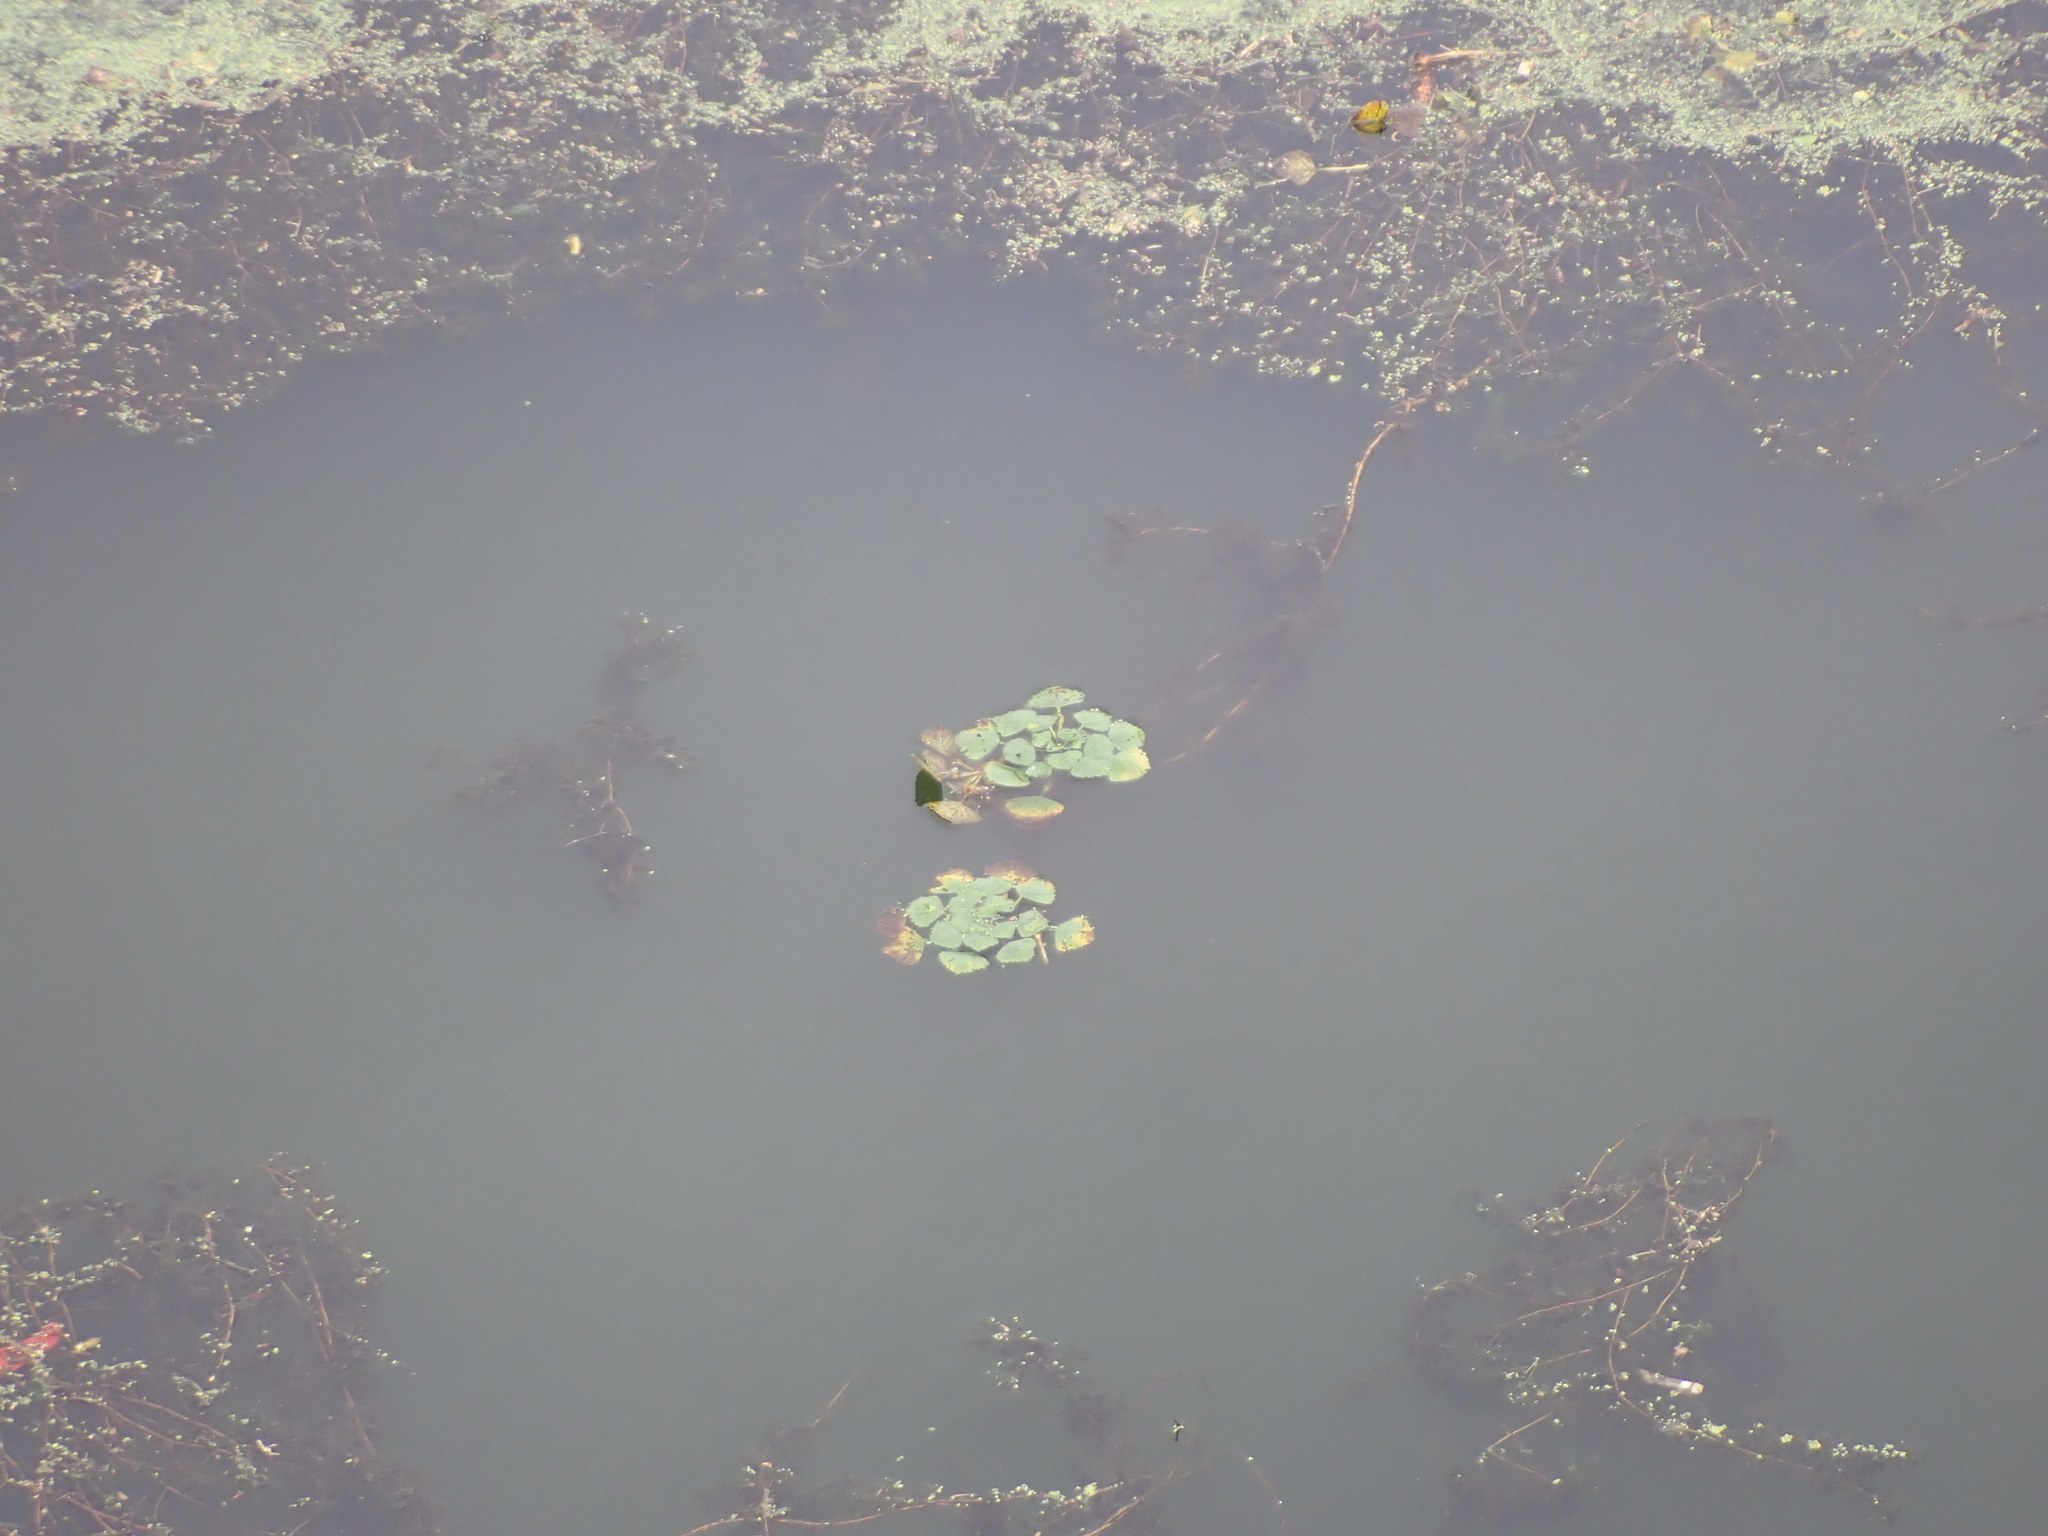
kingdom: Plantae
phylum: Tracheophyta
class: Magnoliopsida
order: Myrtales
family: Lythraceae
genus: Trapa
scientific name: Trapa natans
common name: Water chestnut
